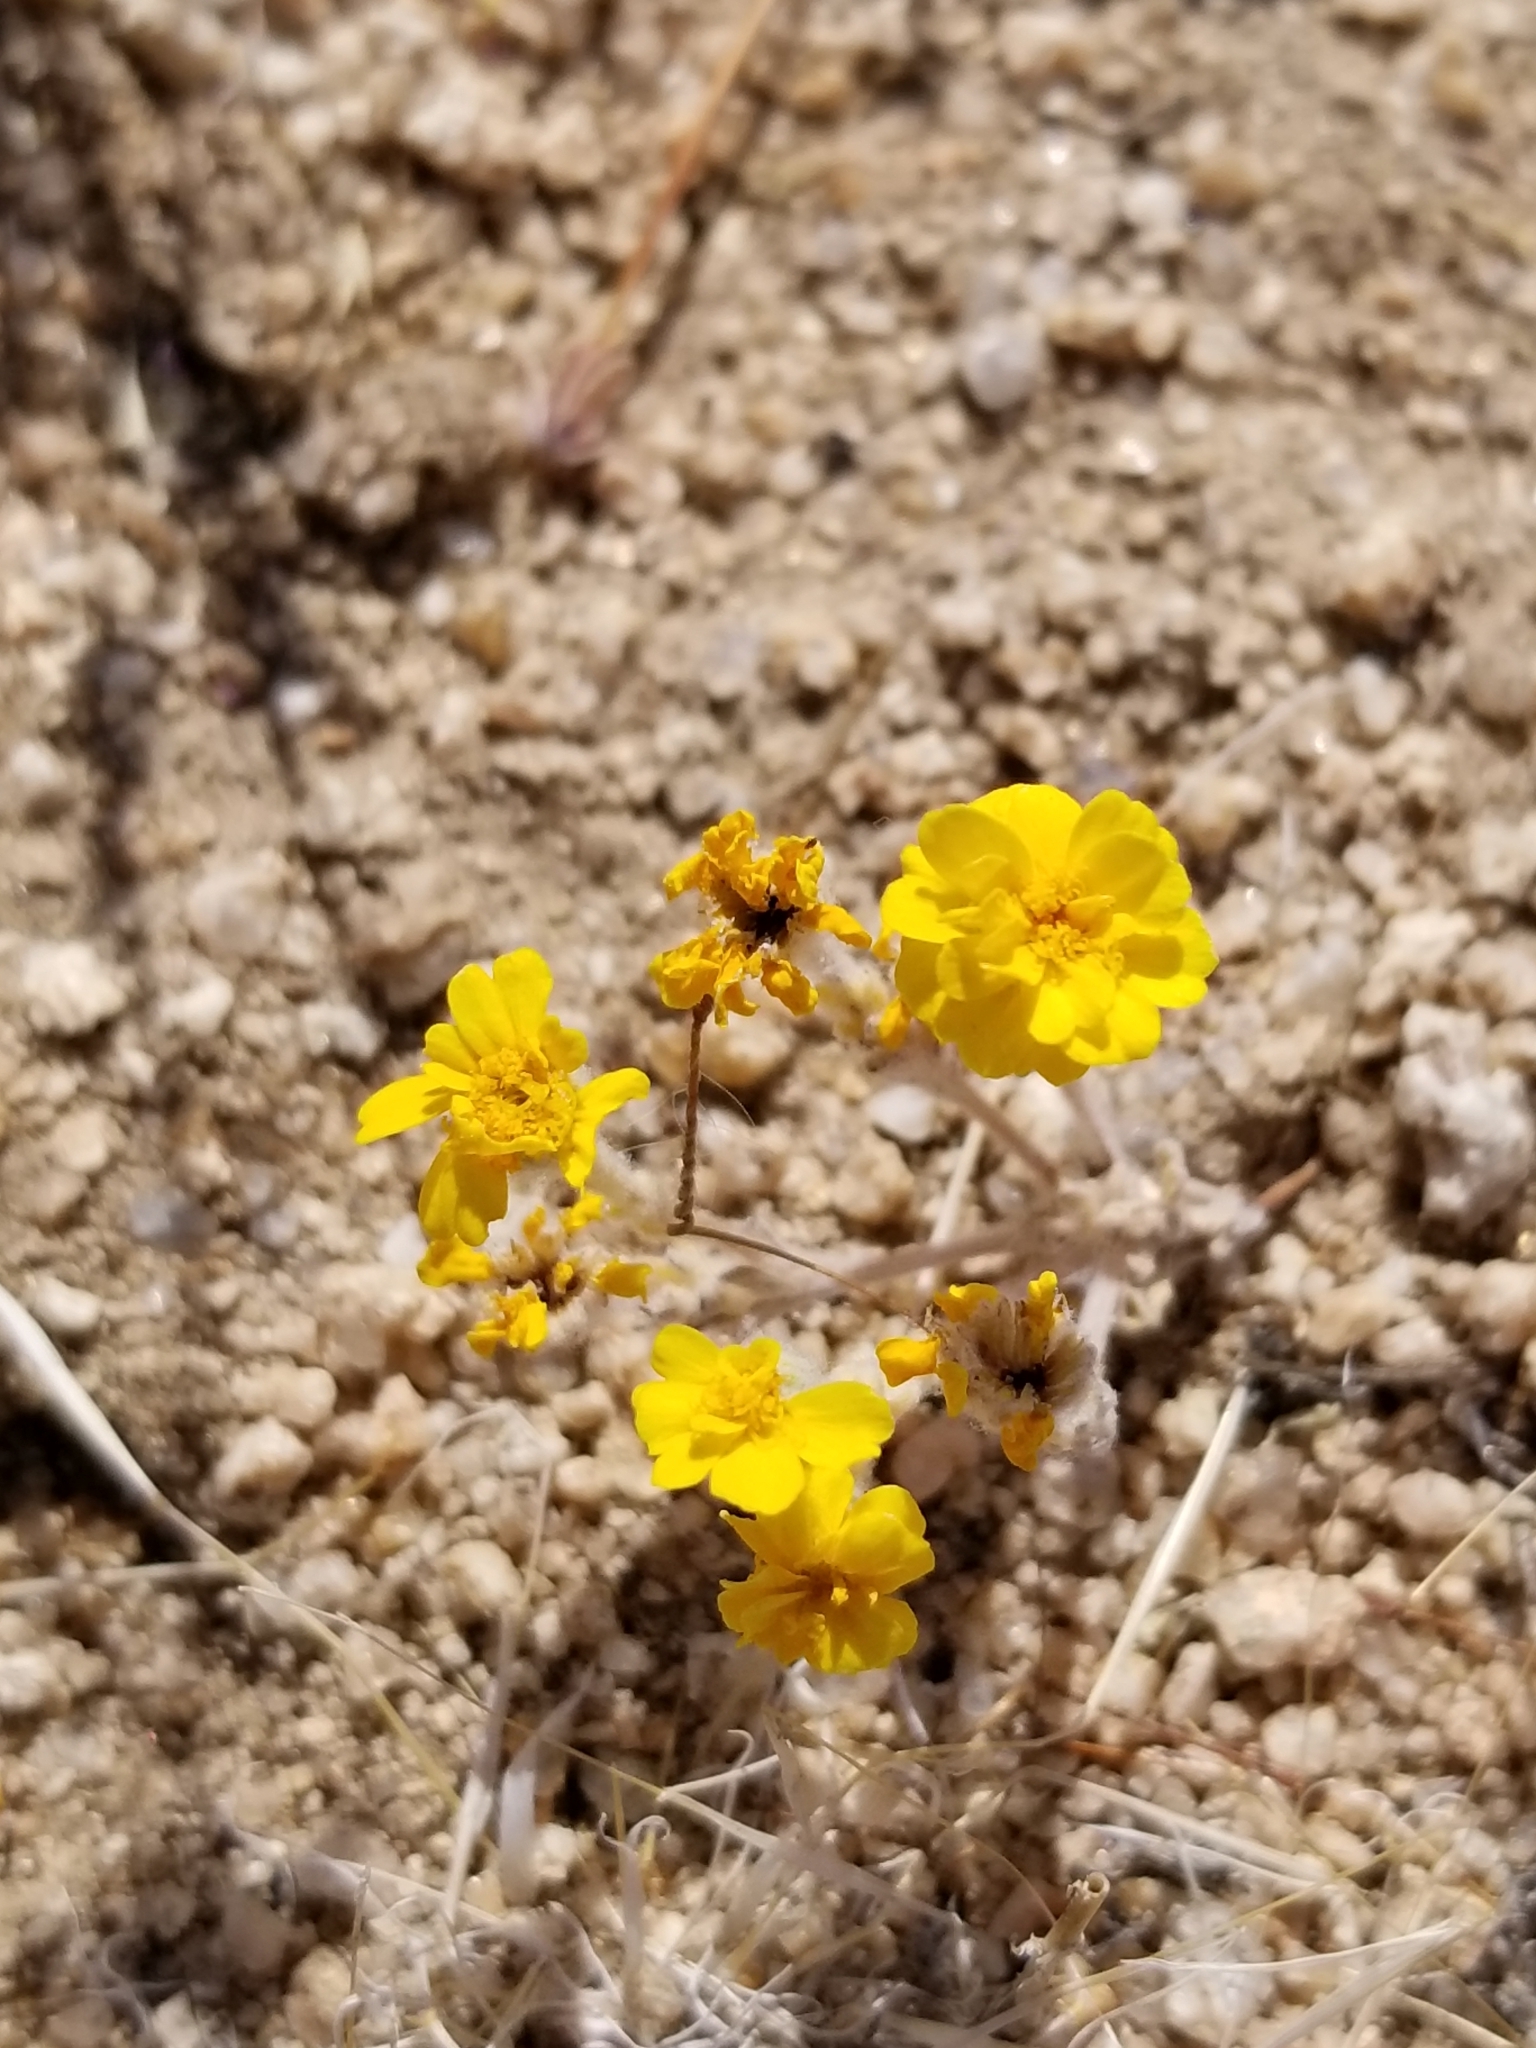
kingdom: Plantae
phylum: Tracheophyta
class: Magnoliopsida
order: Asterales
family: Asteraceae
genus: Eriophyllum
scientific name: Eriophyllum wallacei
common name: Wallace's woolly daisy
